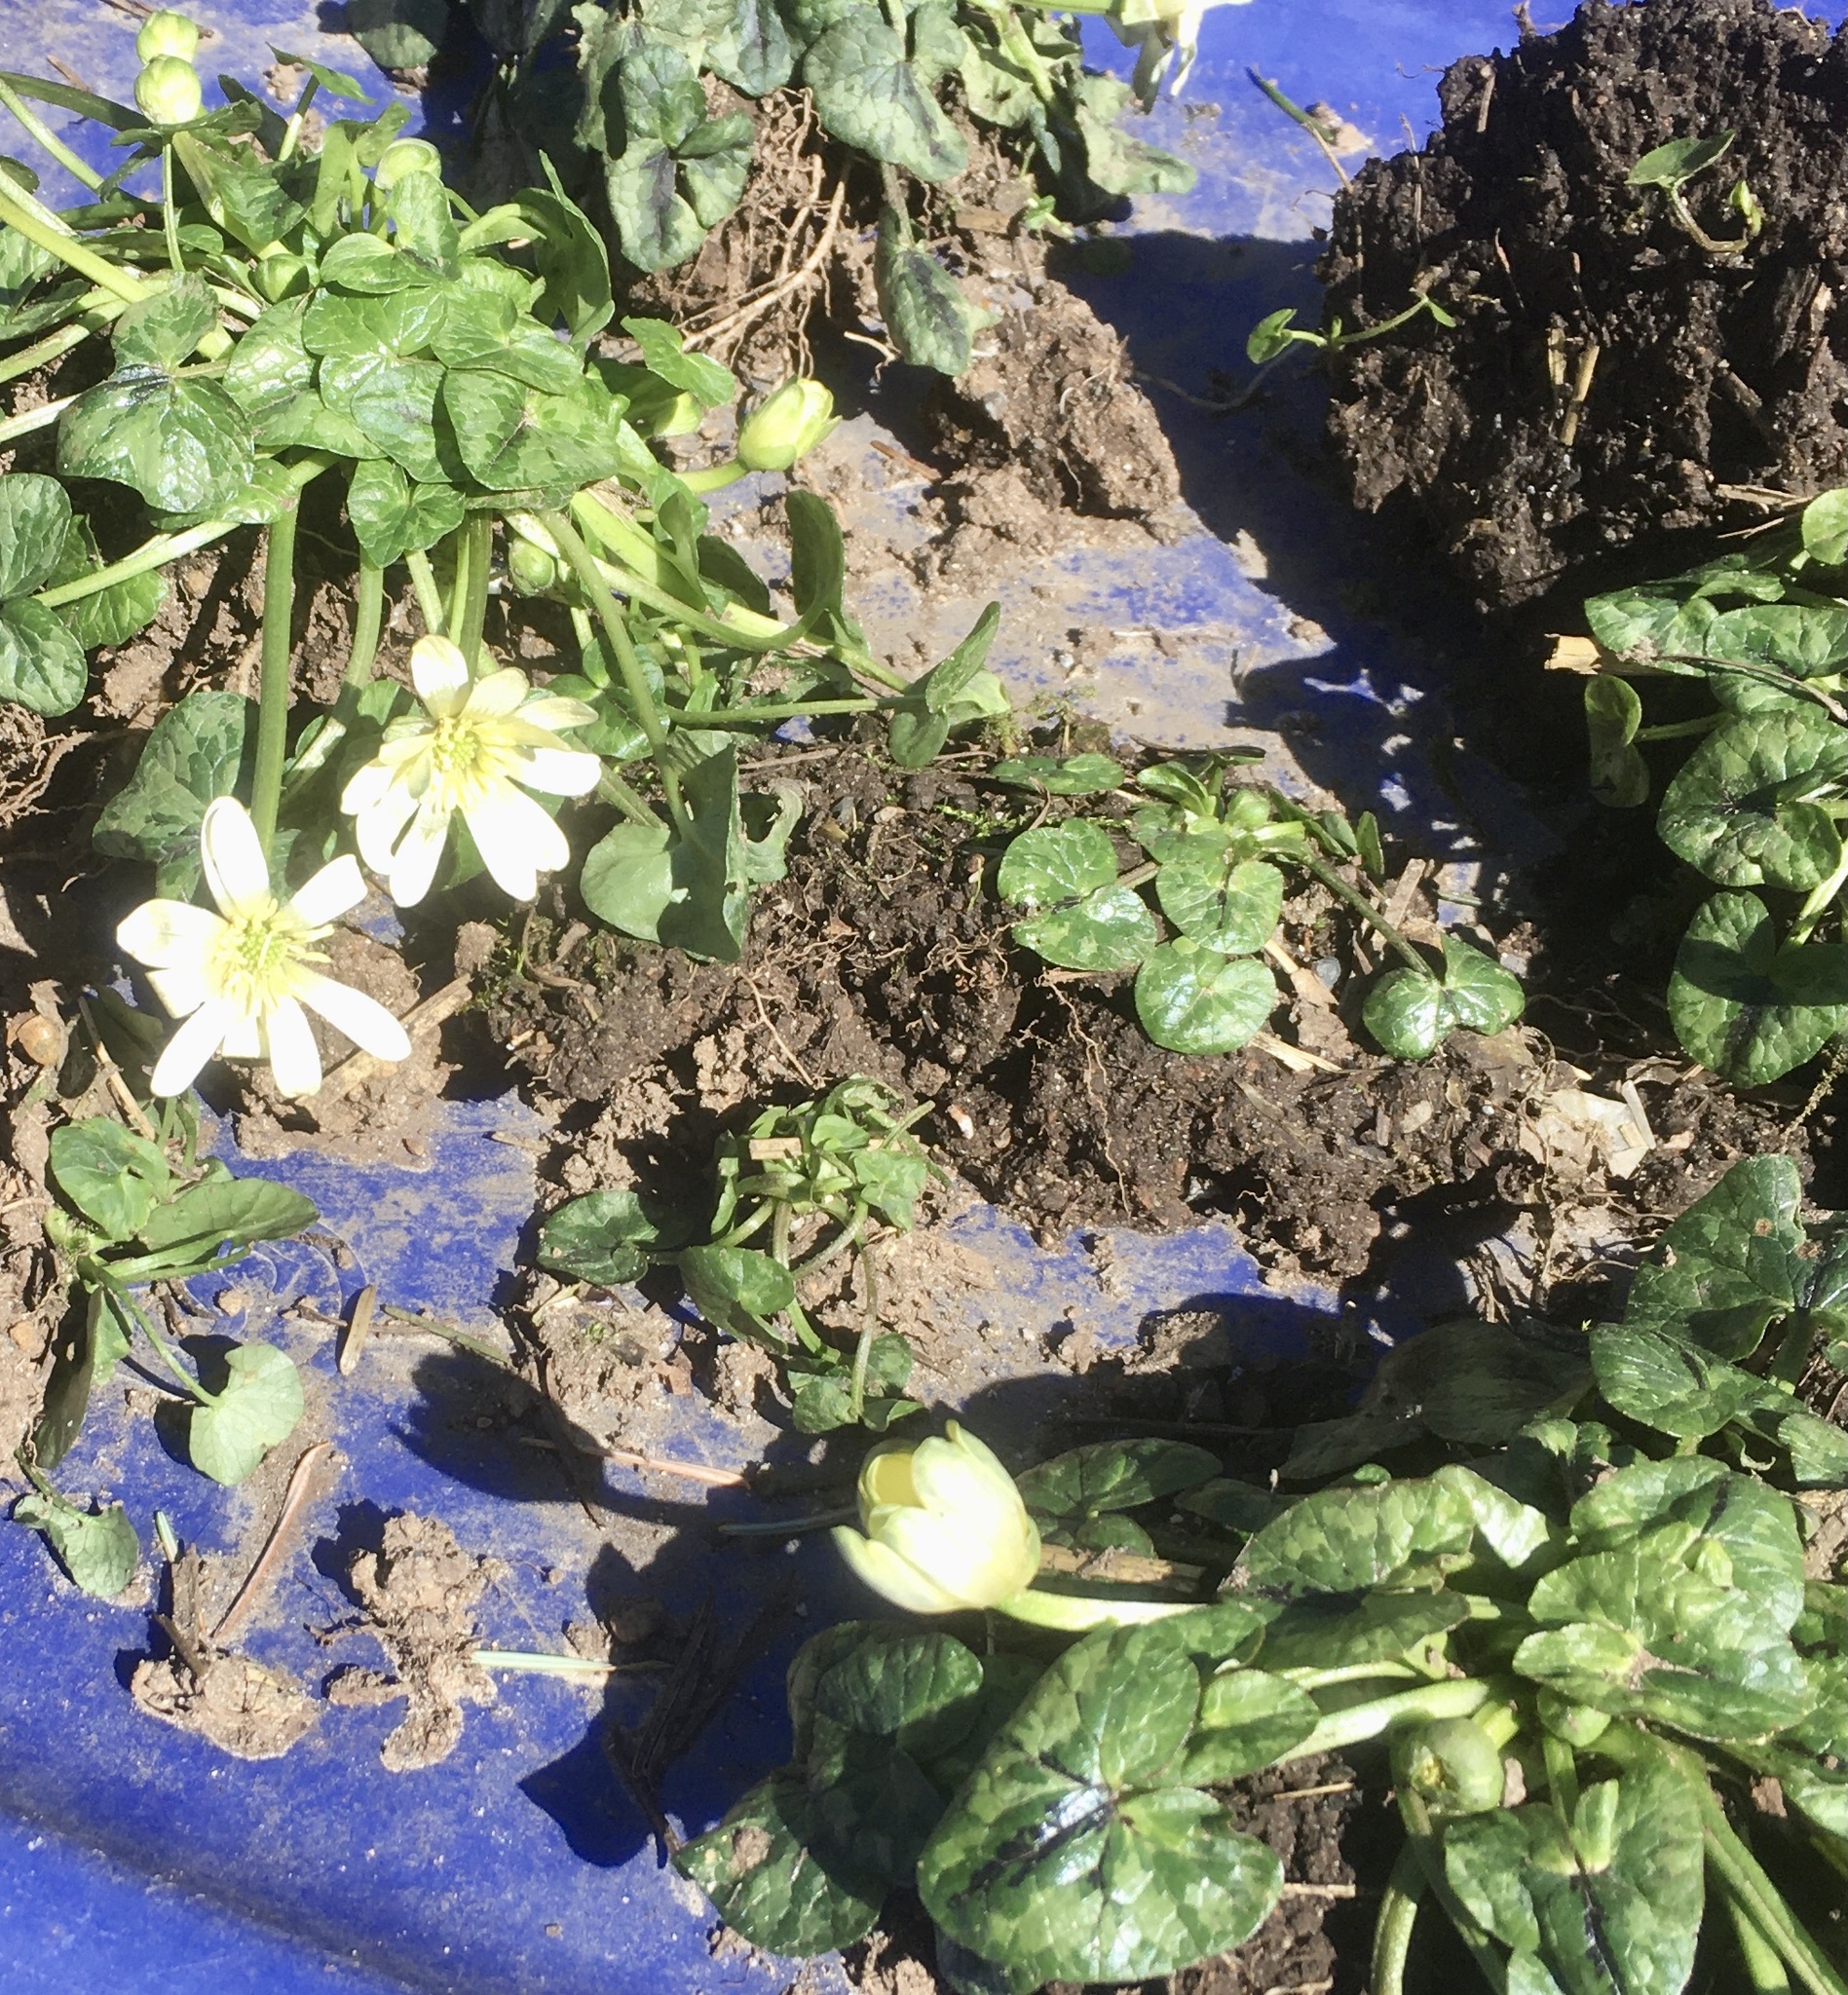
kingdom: Plantae
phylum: Tracheophyta
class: Magnoliopsida
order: Ranunculales
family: Ranunculaceae
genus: Ficaria
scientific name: Ficaria verna
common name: Lesser celandine
